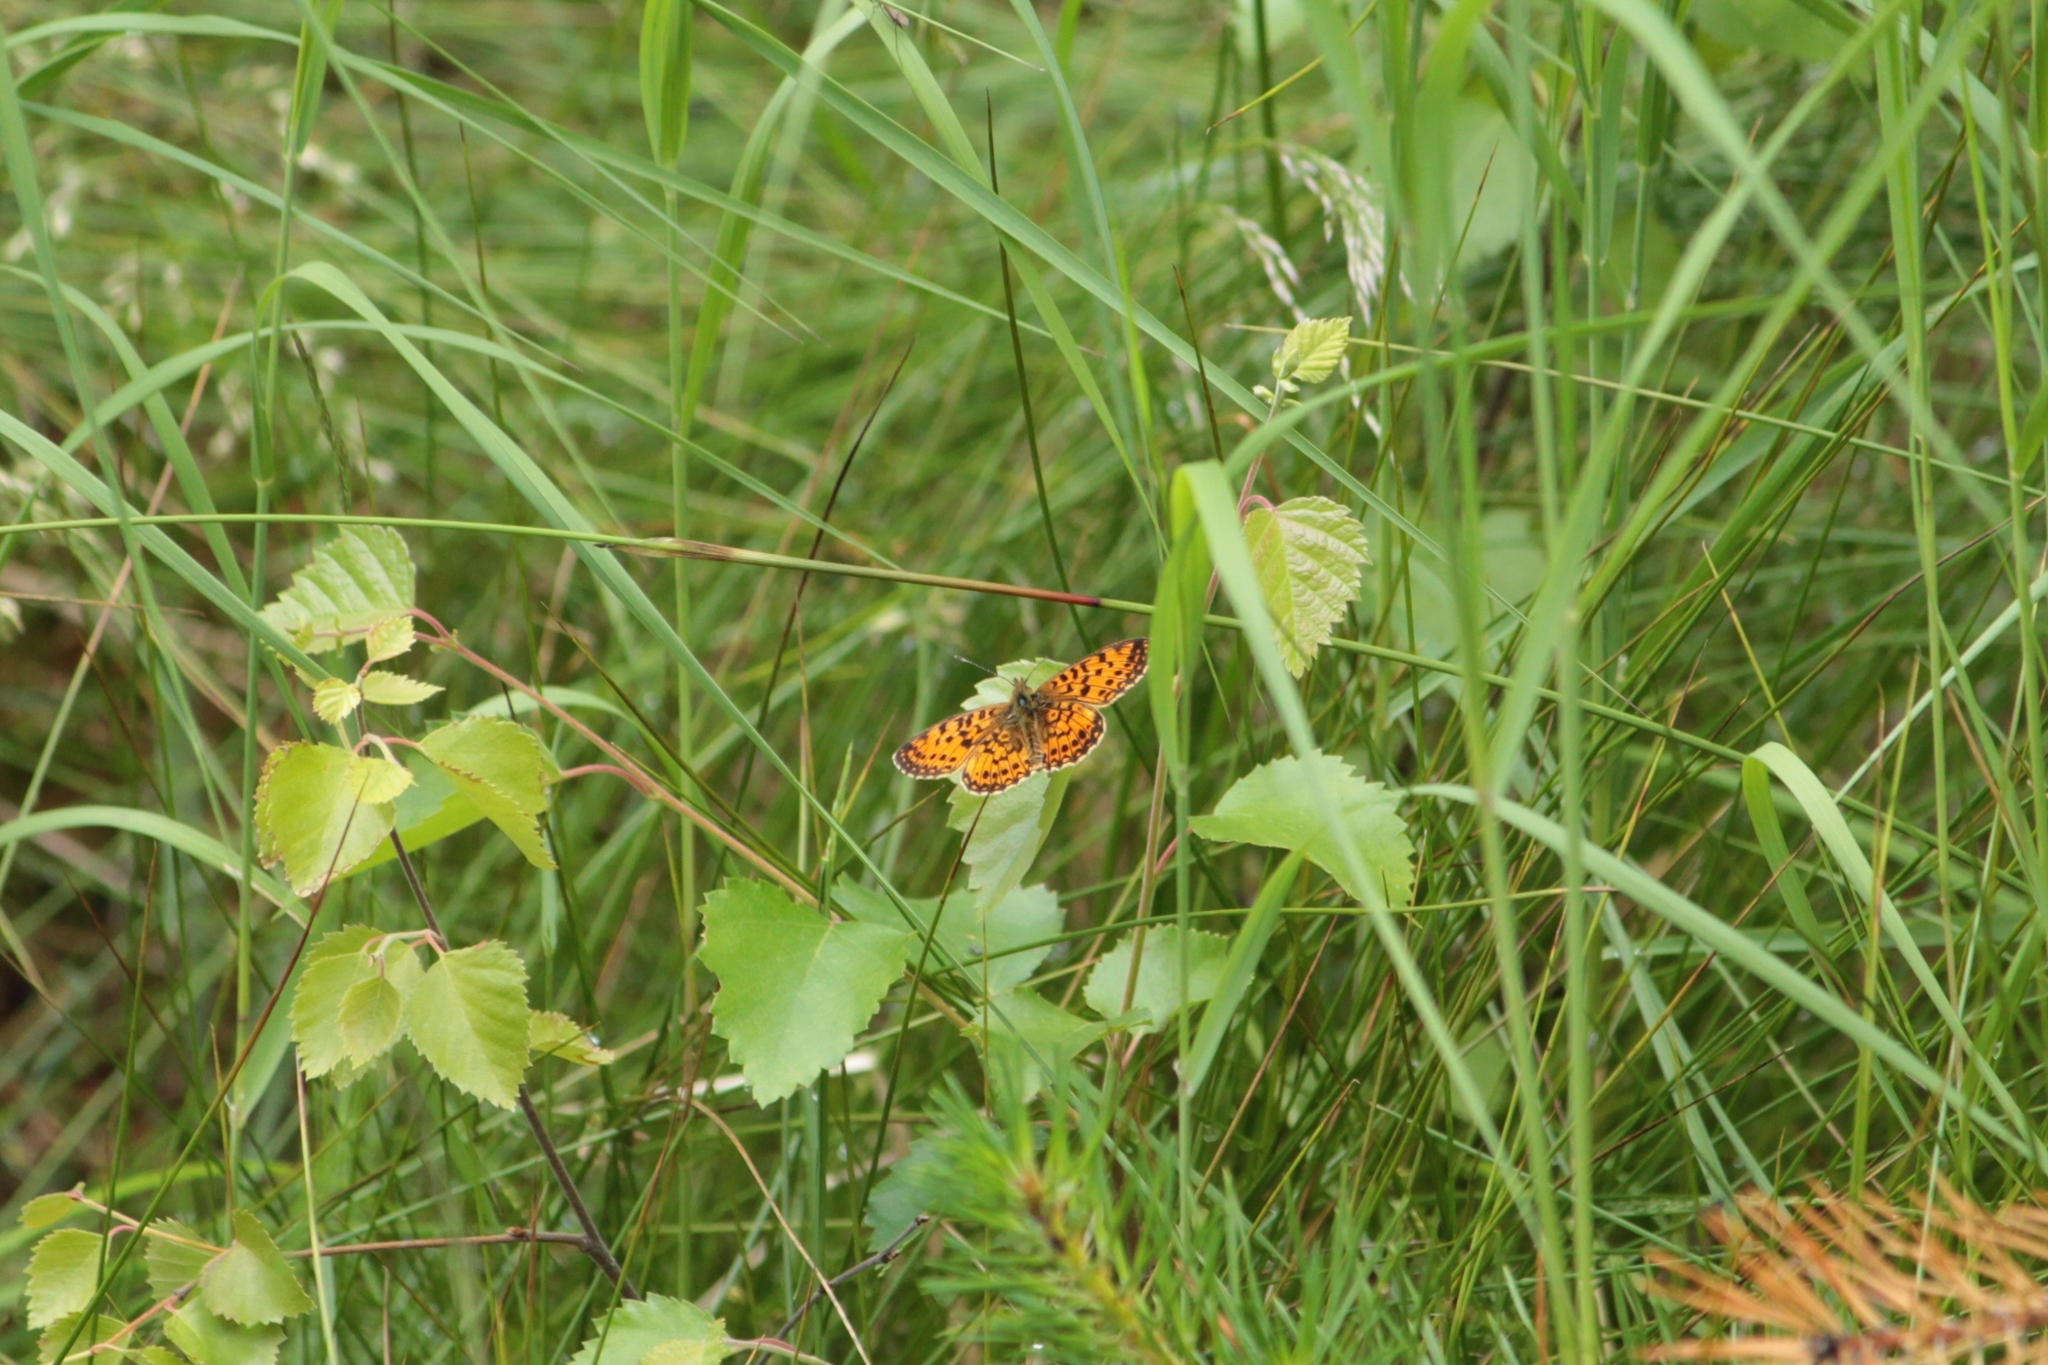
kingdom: Animalia
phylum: Arthropoda
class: Insecta
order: Lepidoptera
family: Nymphalidae
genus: Boloria
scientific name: Boloria selene
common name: Small pearl-bordered fritillary
